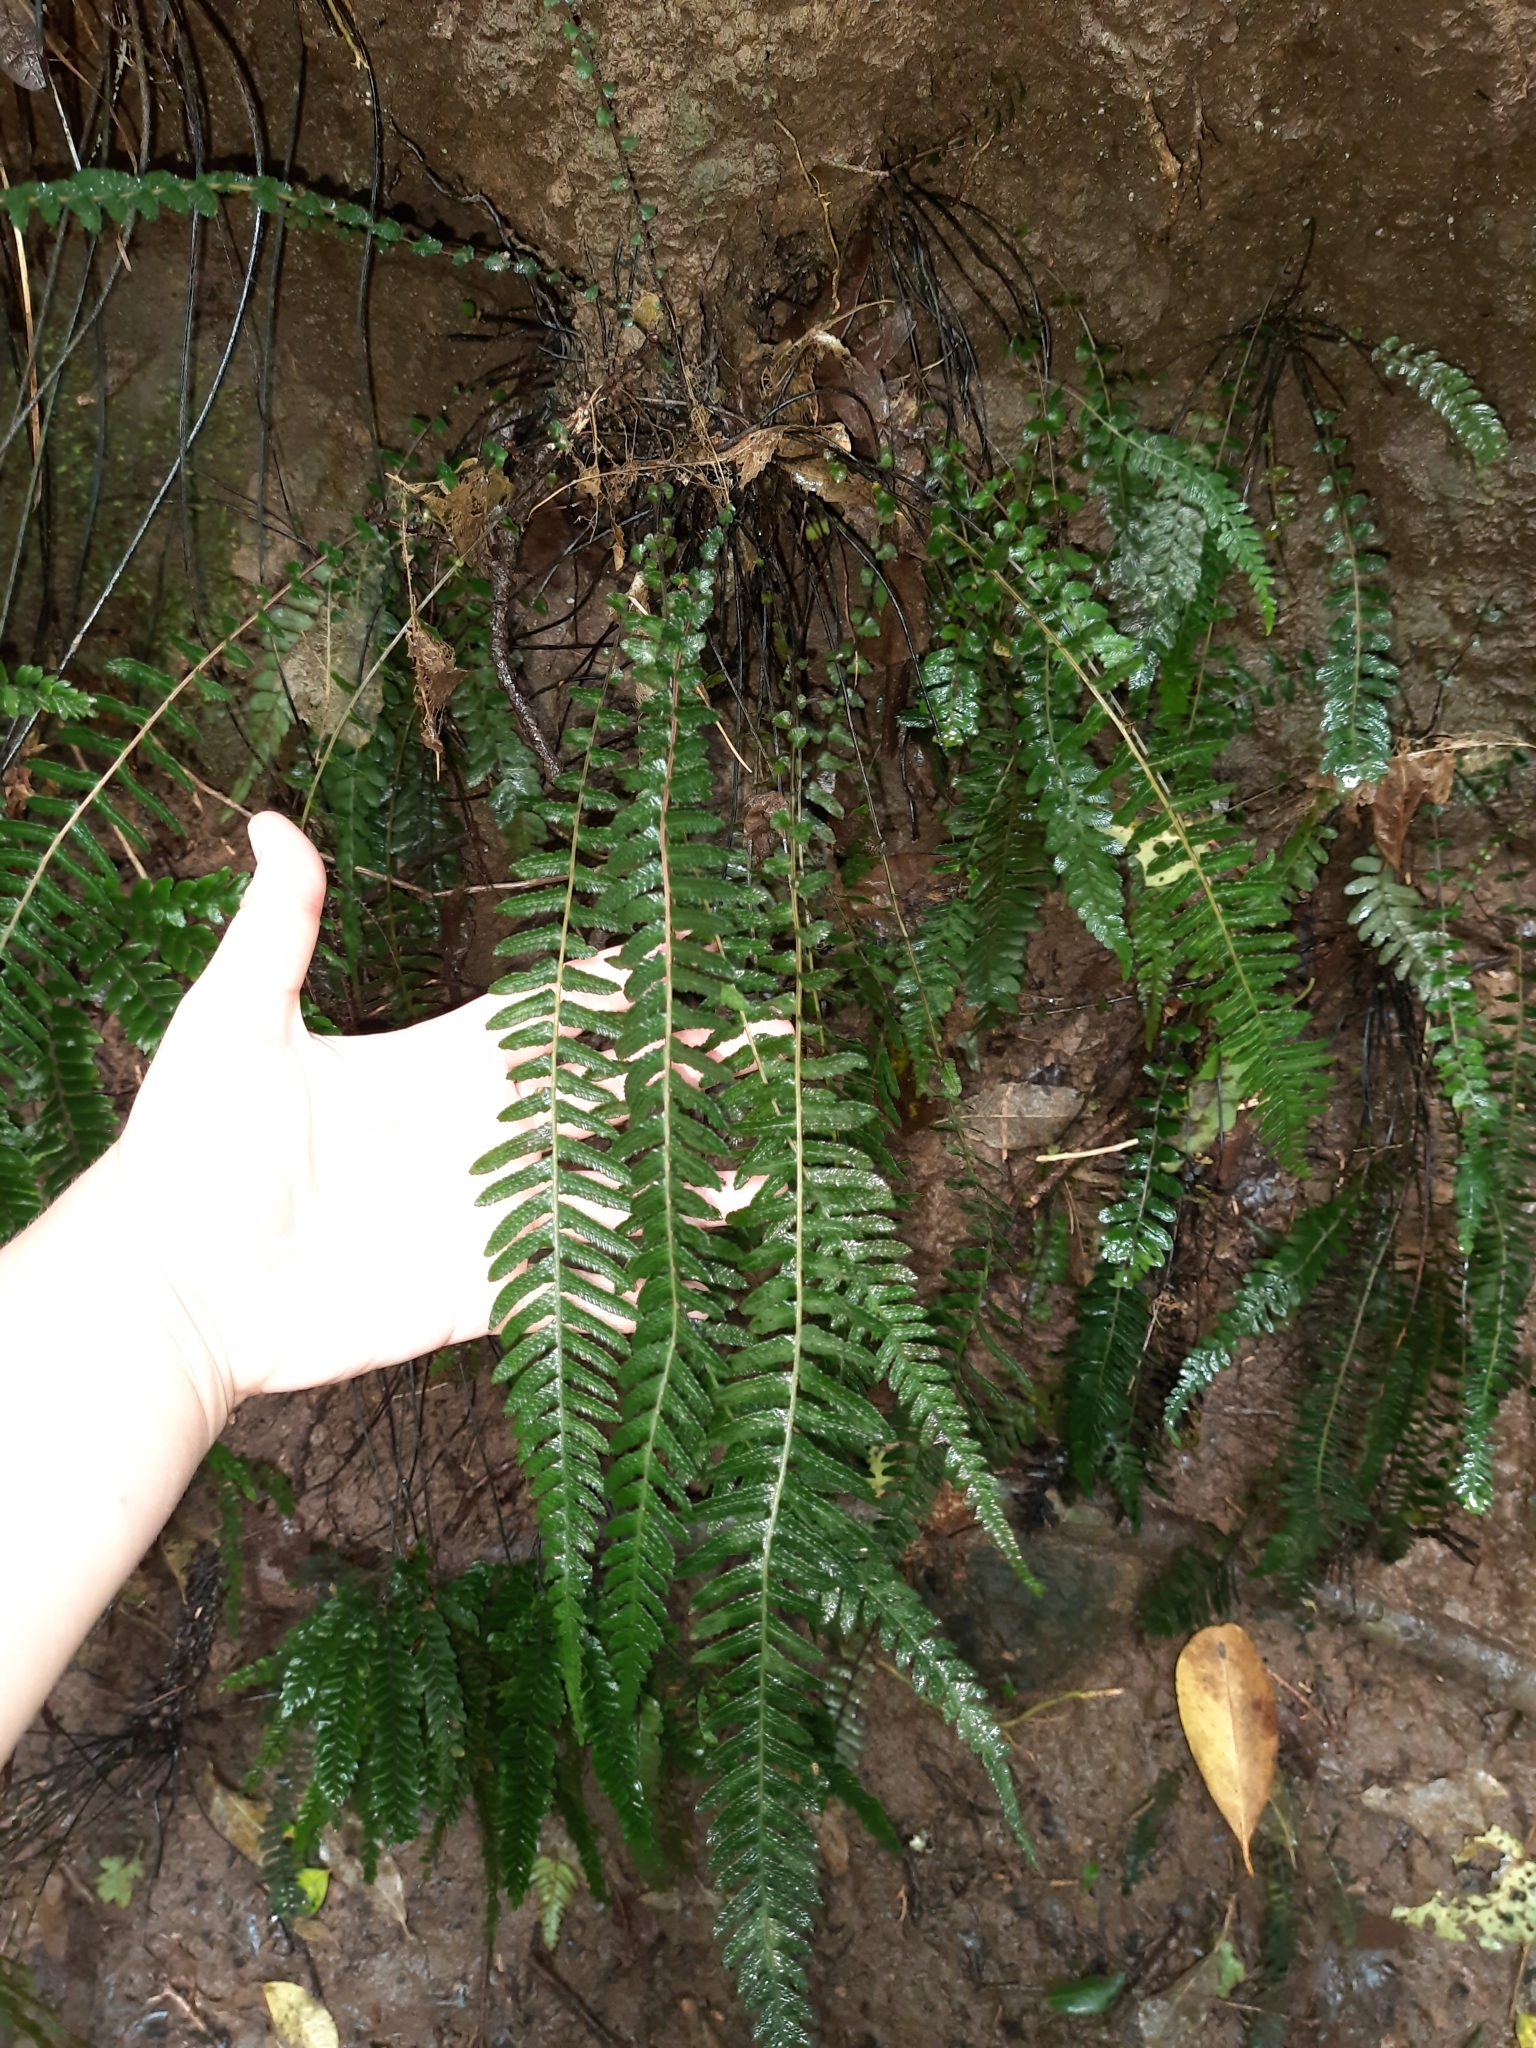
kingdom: Plantae
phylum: Tracheophyta
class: Polypodiopsida
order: Polypodiales
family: Blechnaceae
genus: Doodia
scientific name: Doodia australis
